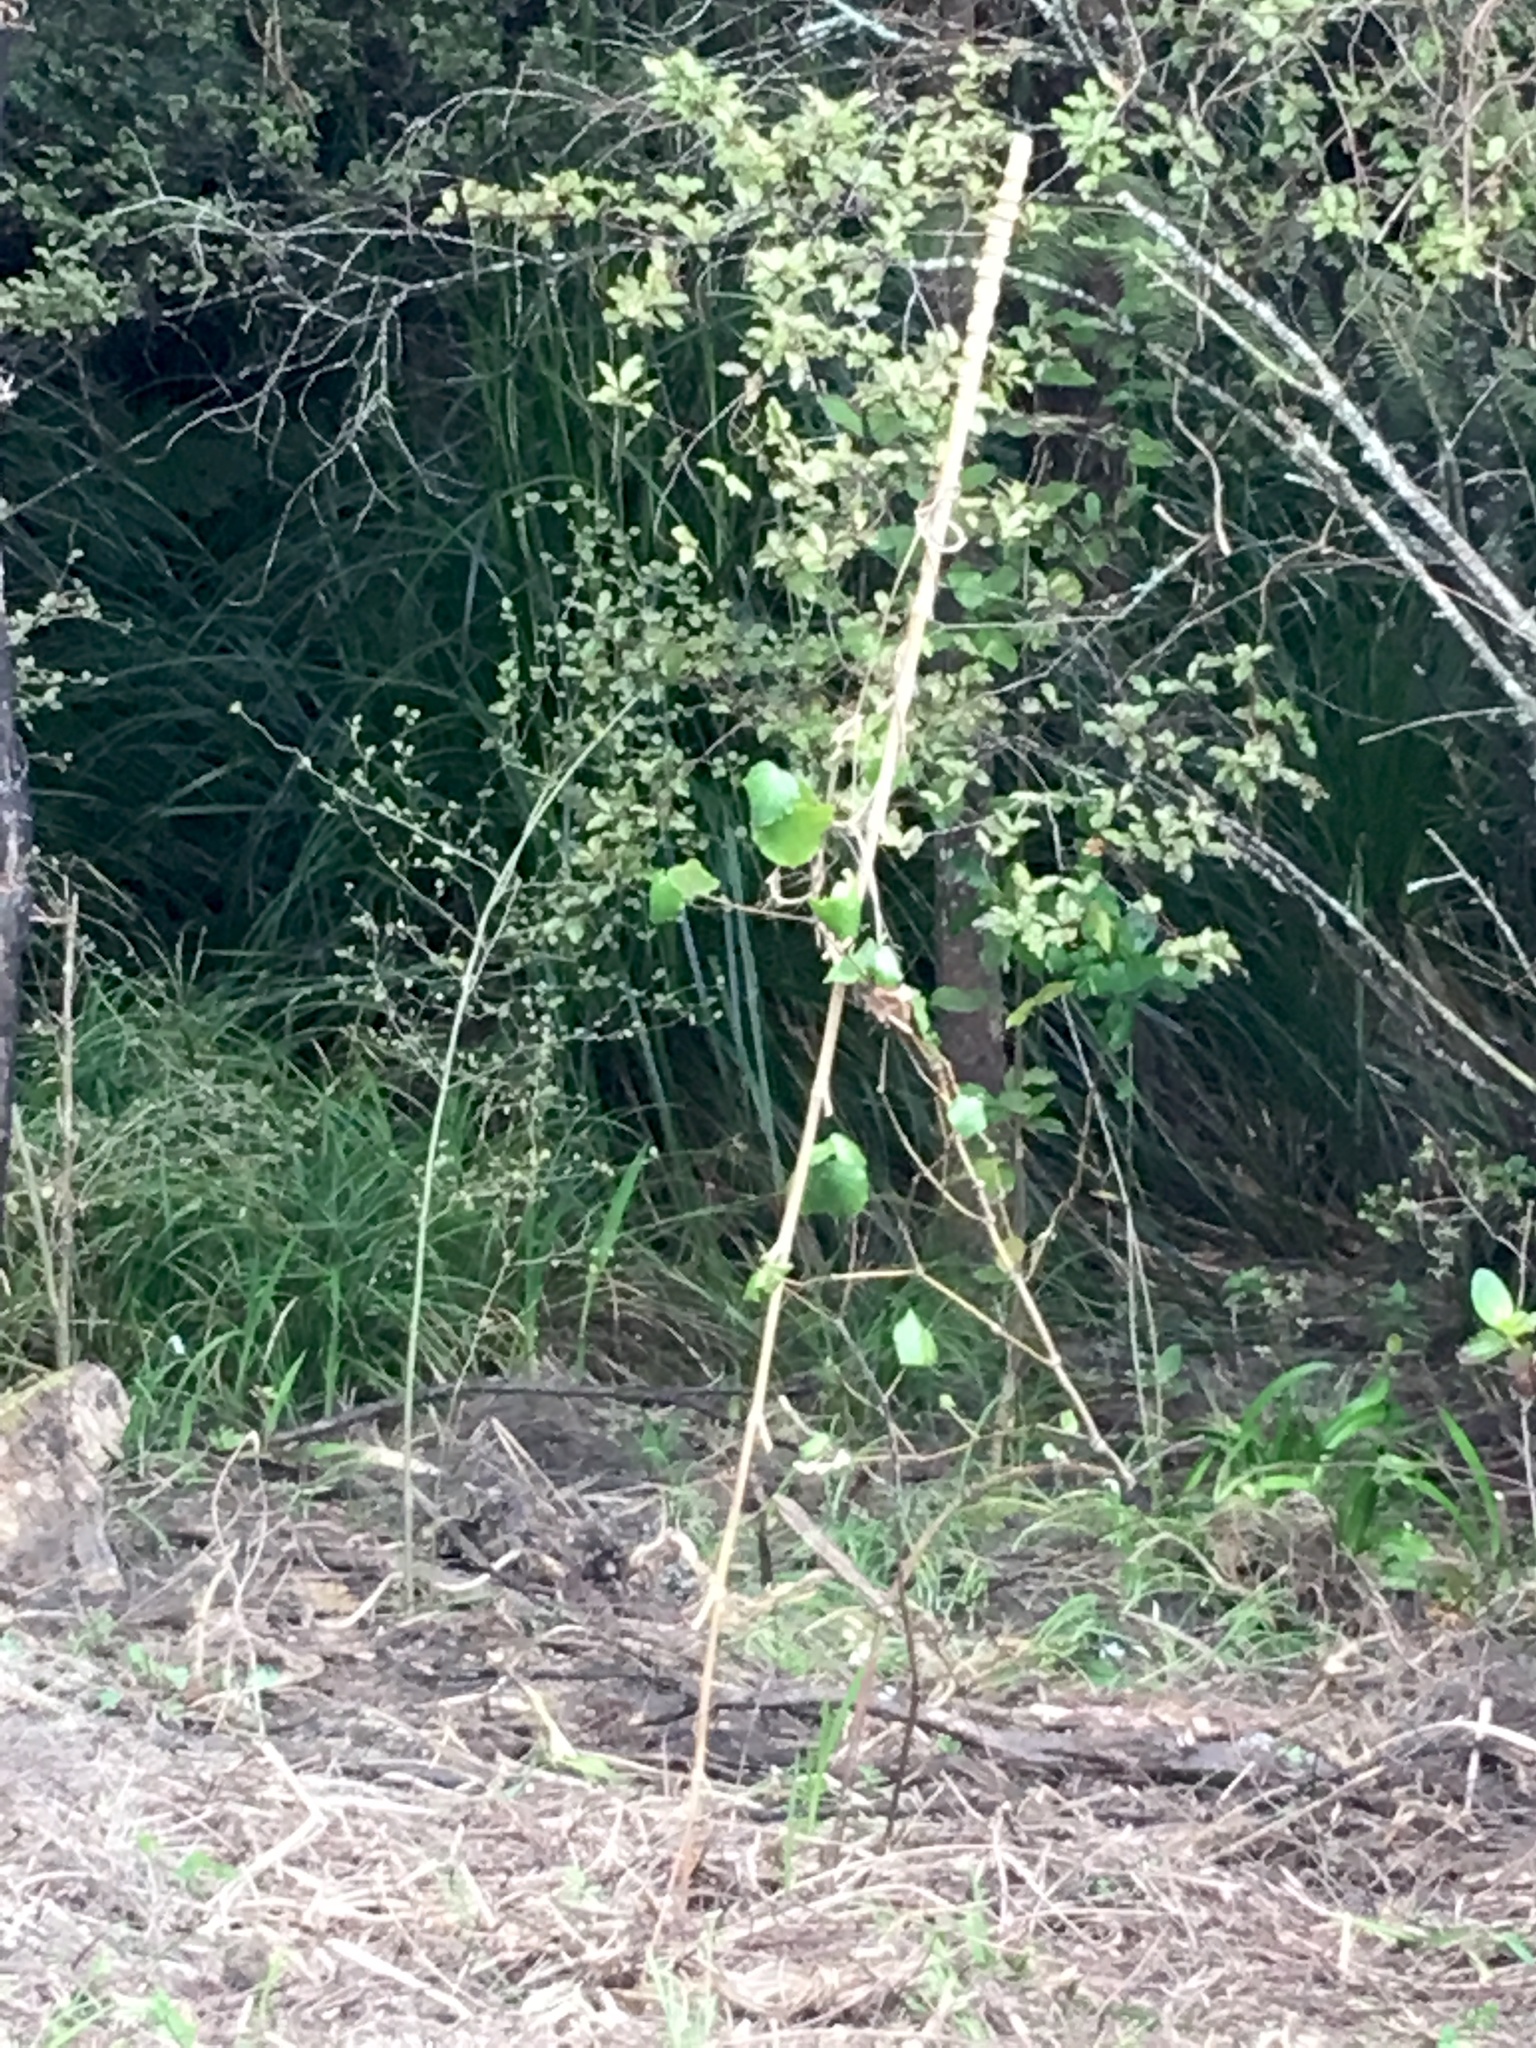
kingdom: Plantae
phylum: Tracheophyta
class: Magnoliopsida
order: Piperales
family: Piperaceae
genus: Macropiper
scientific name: Macropiper excelsum
